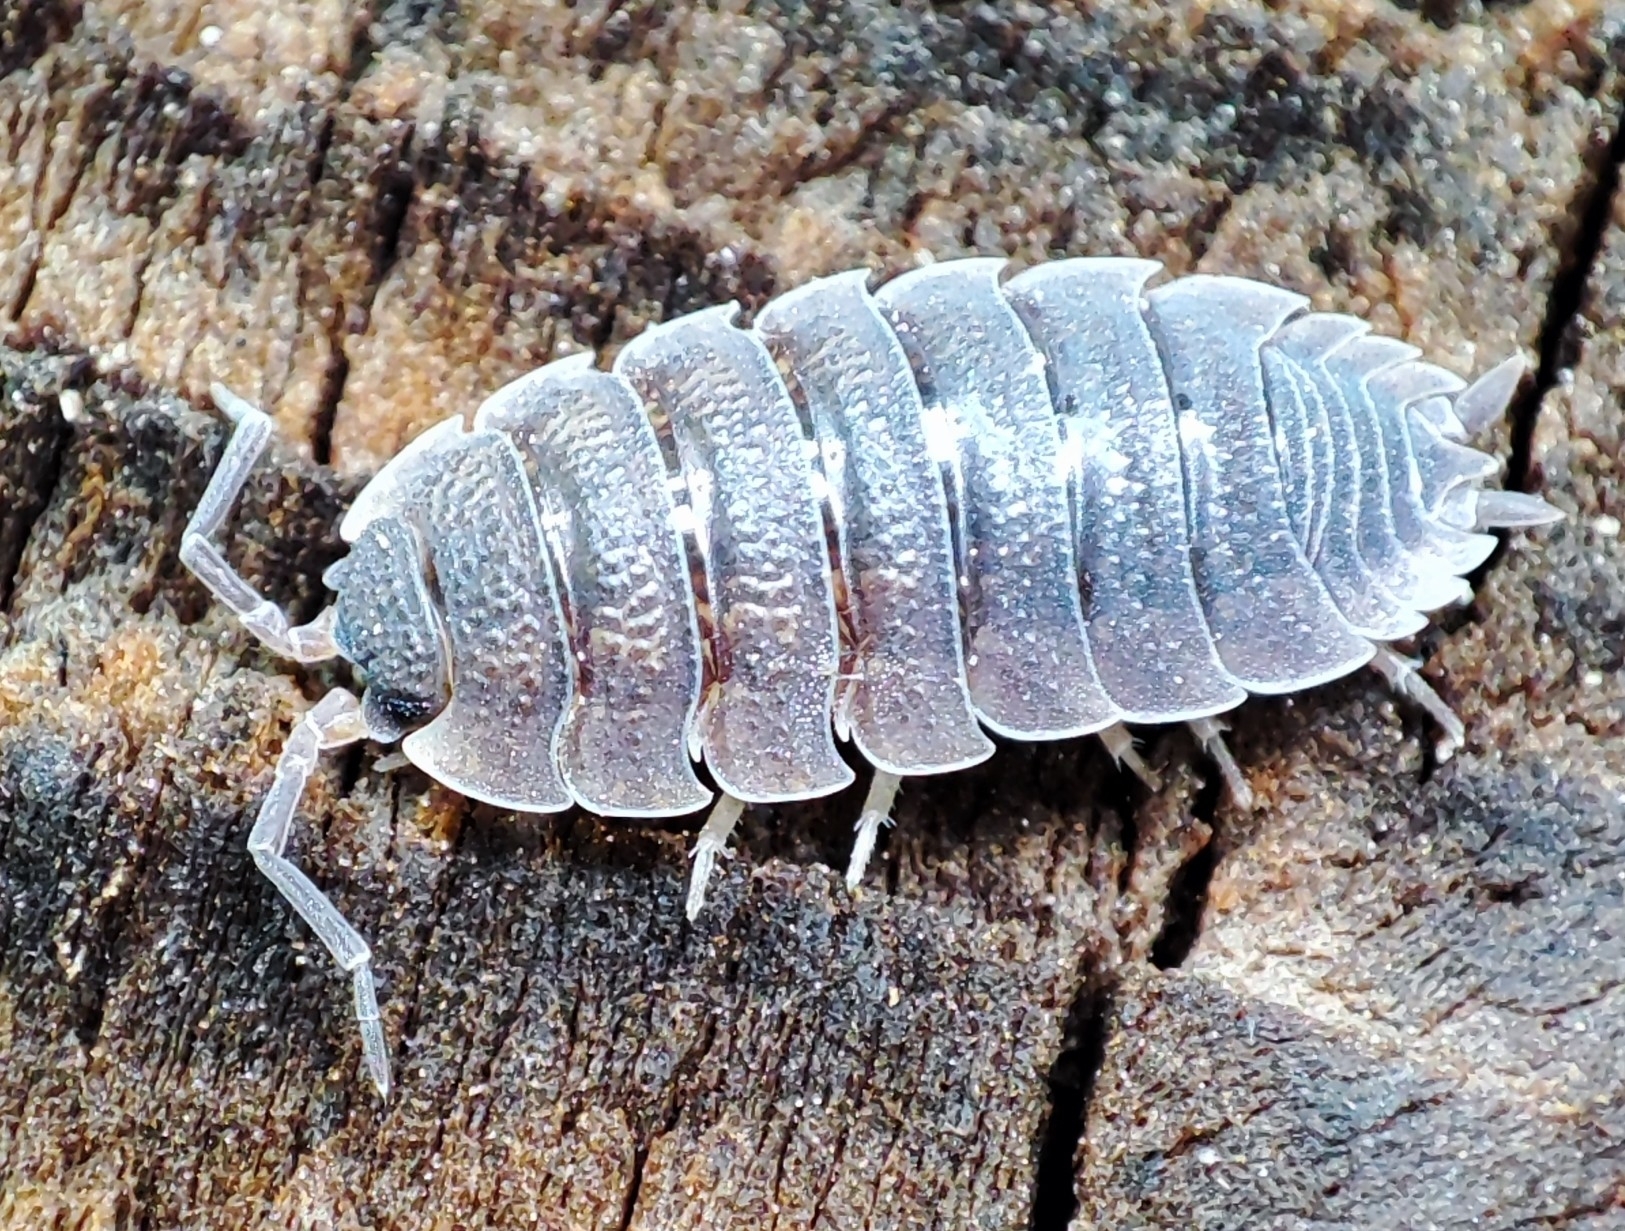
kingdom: Animalia
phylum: Arthropoda
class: Malacostraca
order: Isopoda
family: Porcellionidae
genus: Porcellio
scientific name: Porcellio scaber
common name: Common rough woodlouse
